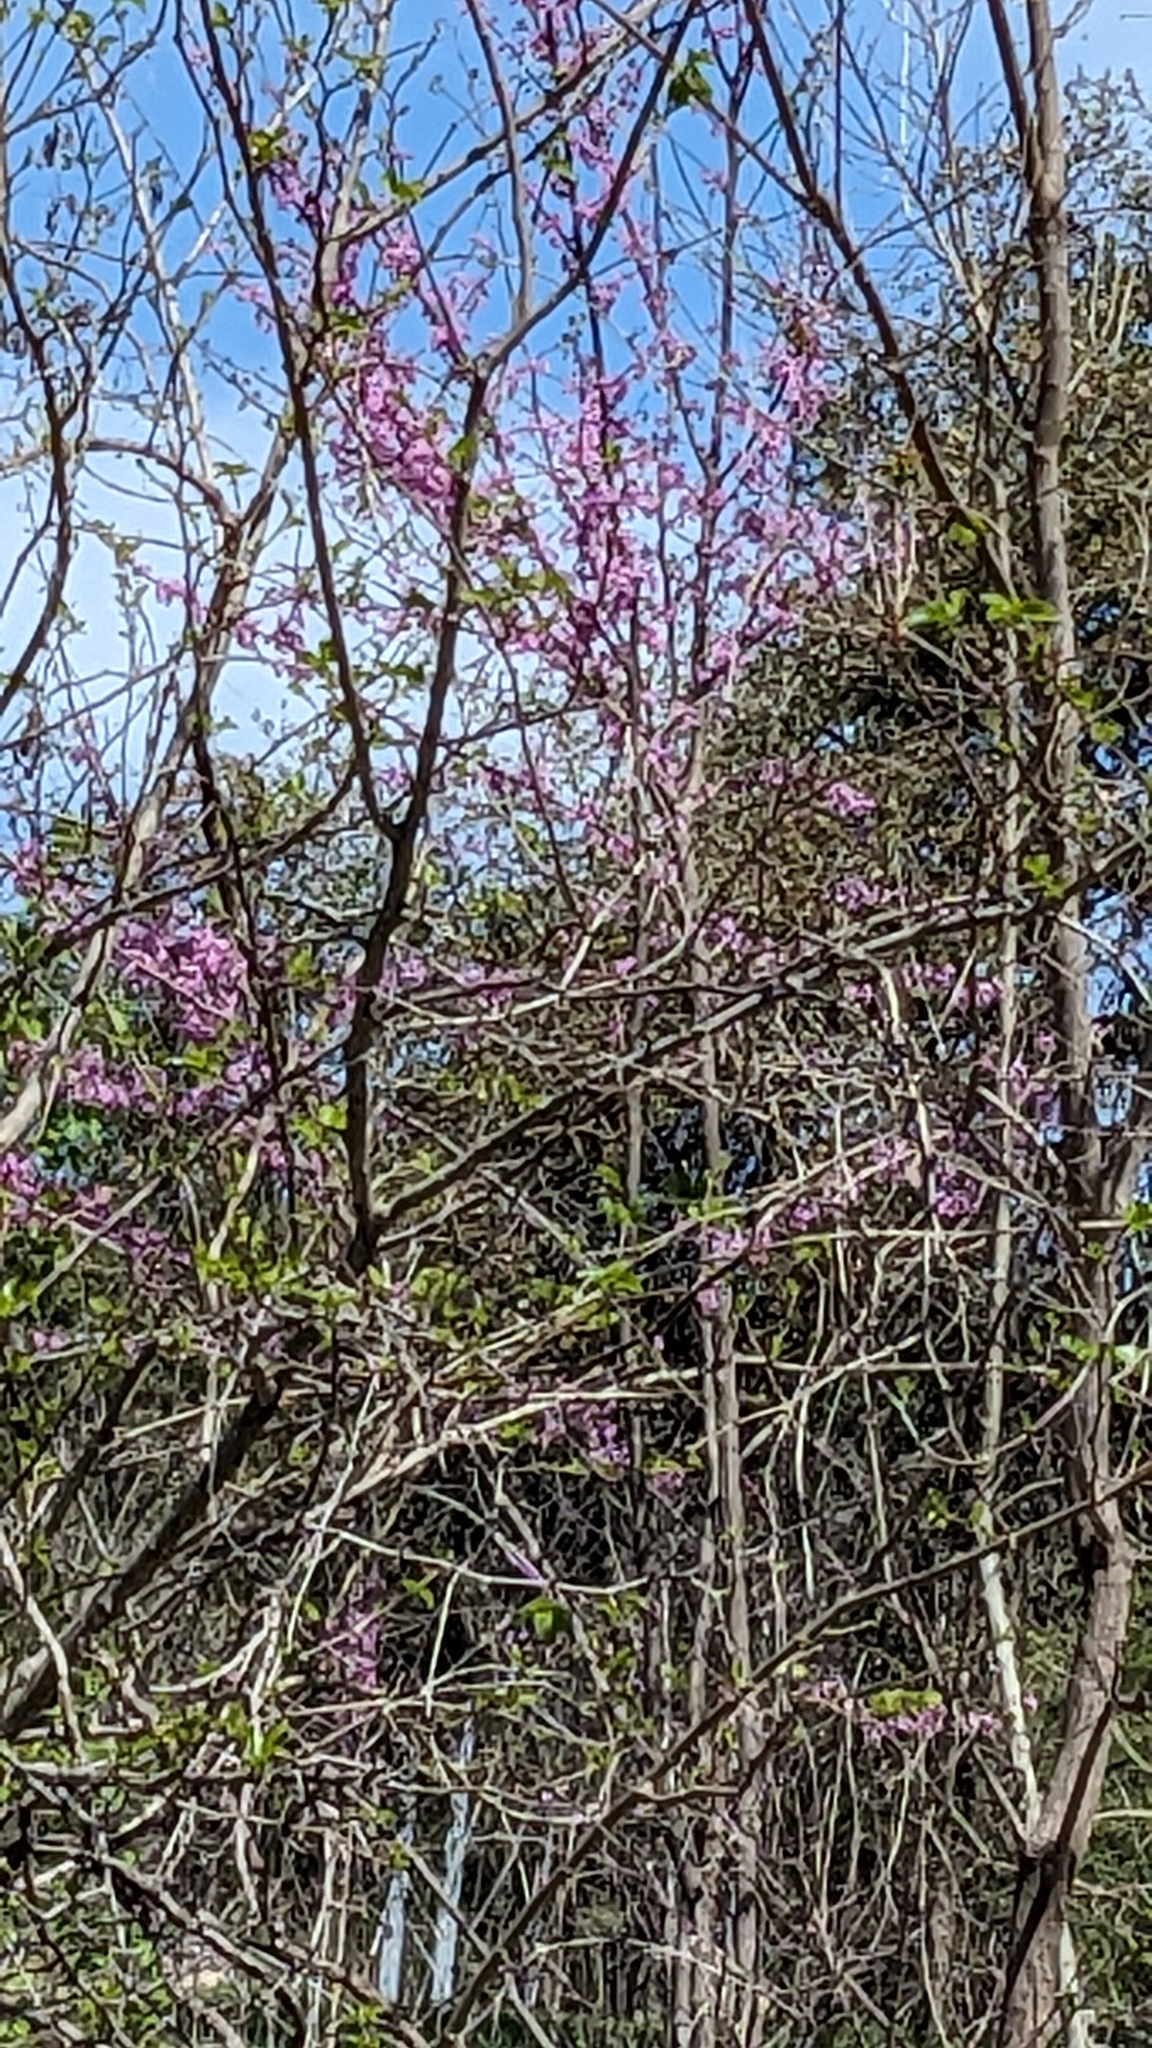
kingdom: Plantae
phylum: Tracheophyta
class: Magnoliopsida
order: Fabales
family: Fabaceae
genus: Cercis
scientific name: Cercis canadensis
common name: Eastern redbud
